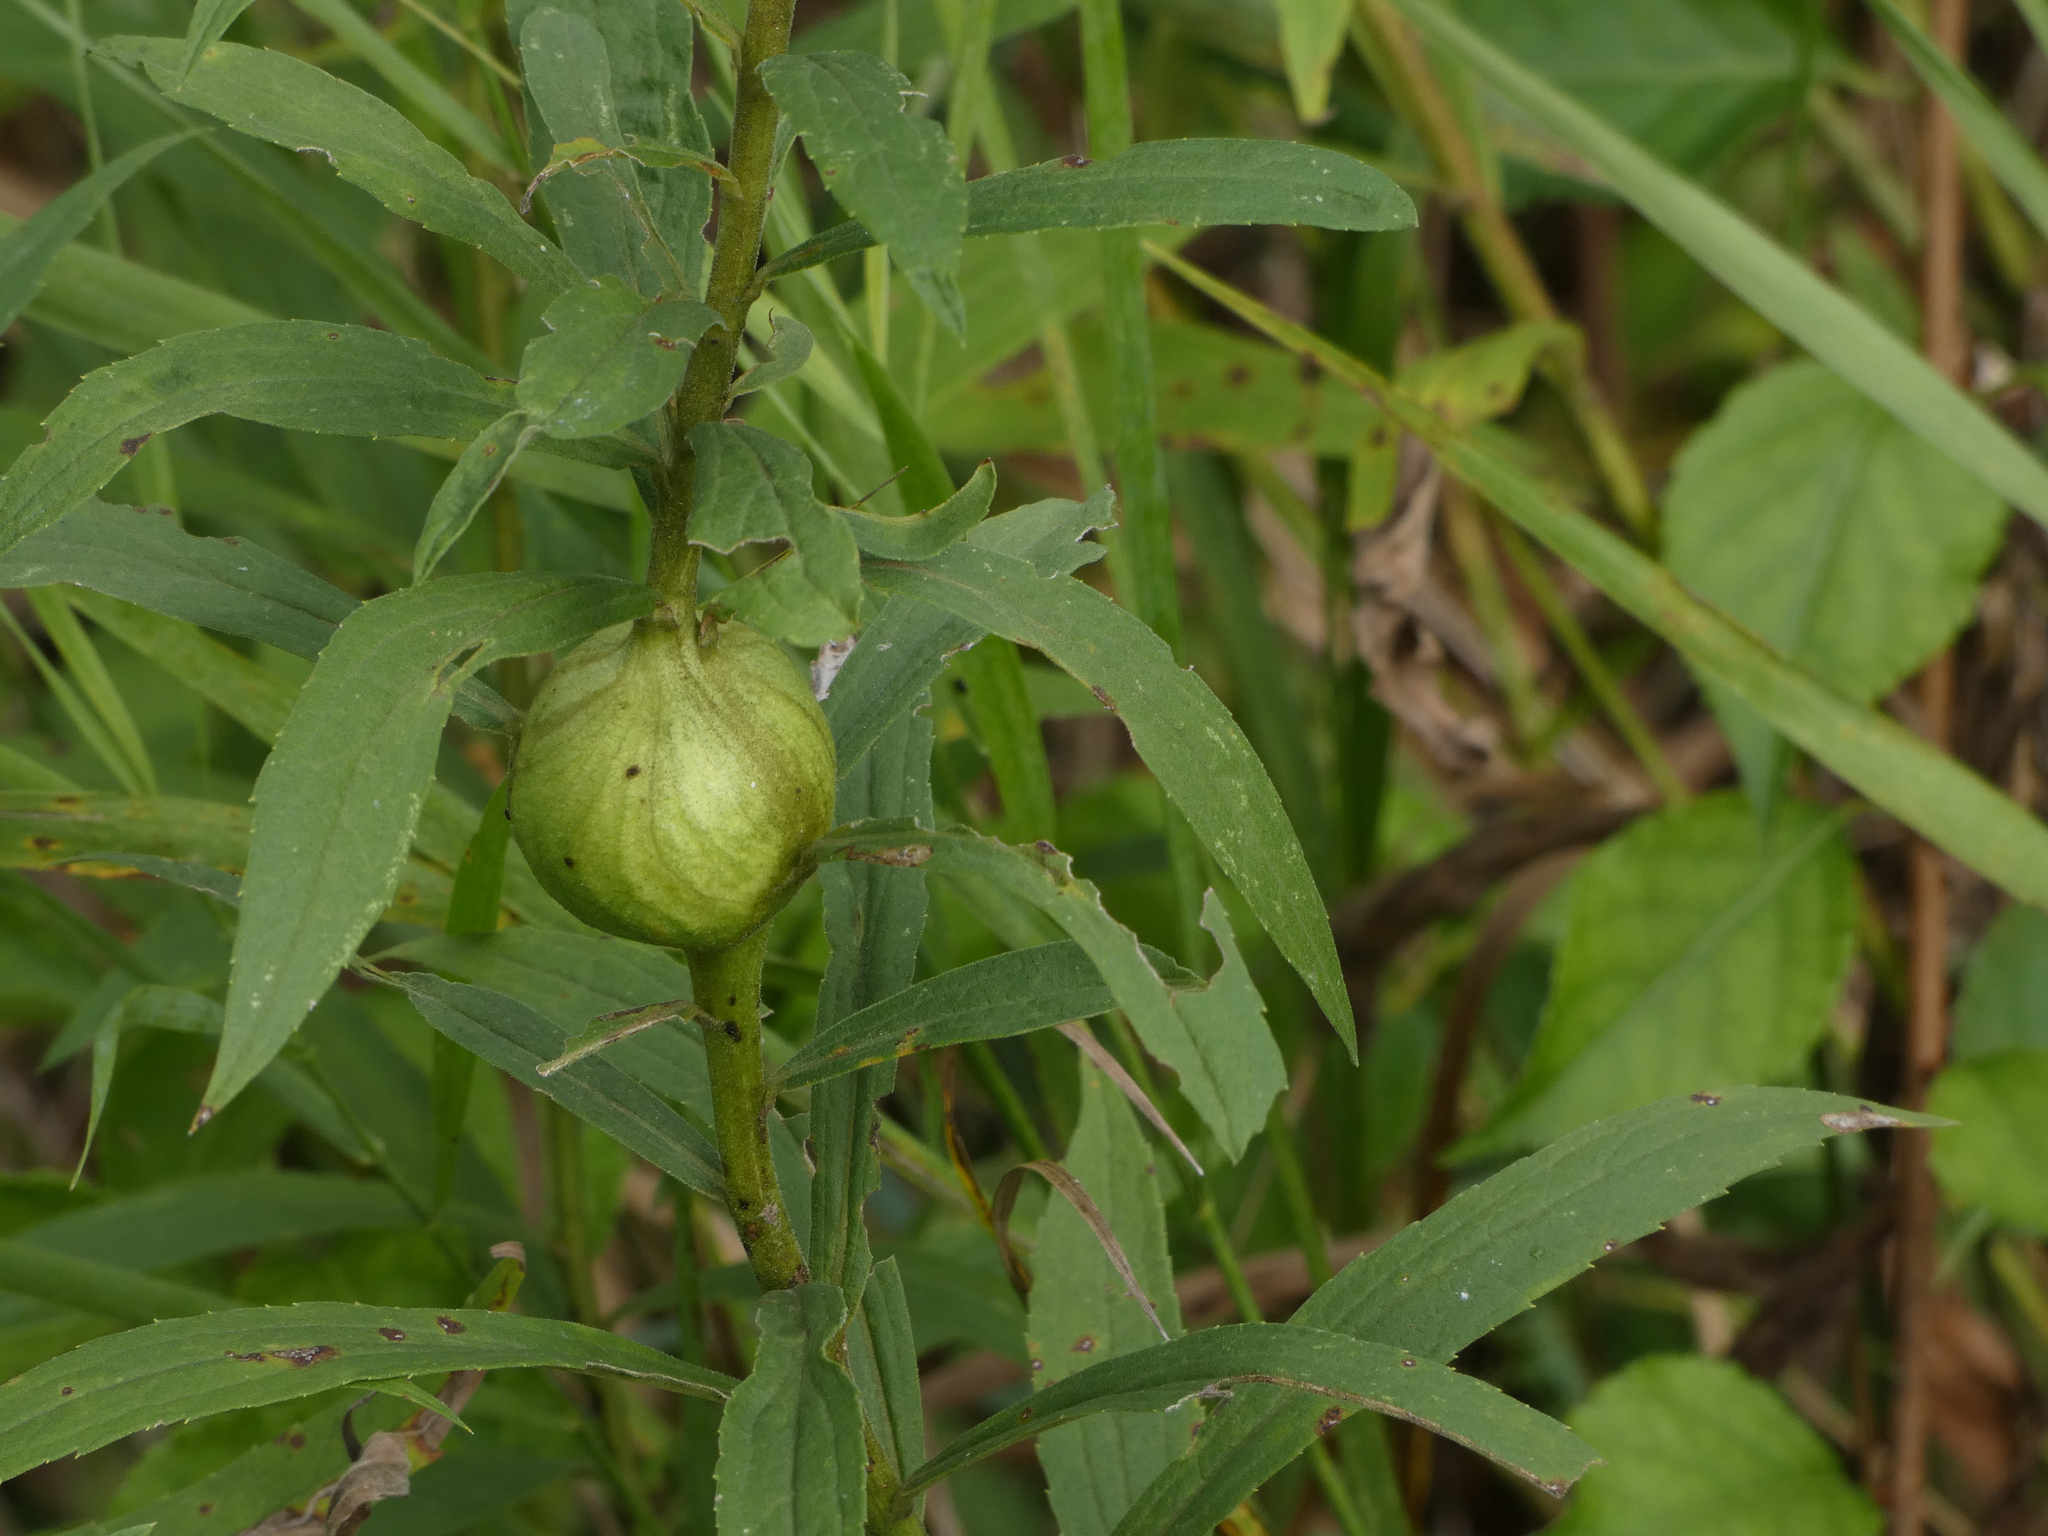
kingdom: Animalia
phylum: Arthropoda
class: Insecta
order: Diptera
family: Tephritidae
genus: Eurosta
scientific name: Eurosta solidaginis
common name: Goldenrod gall fly
